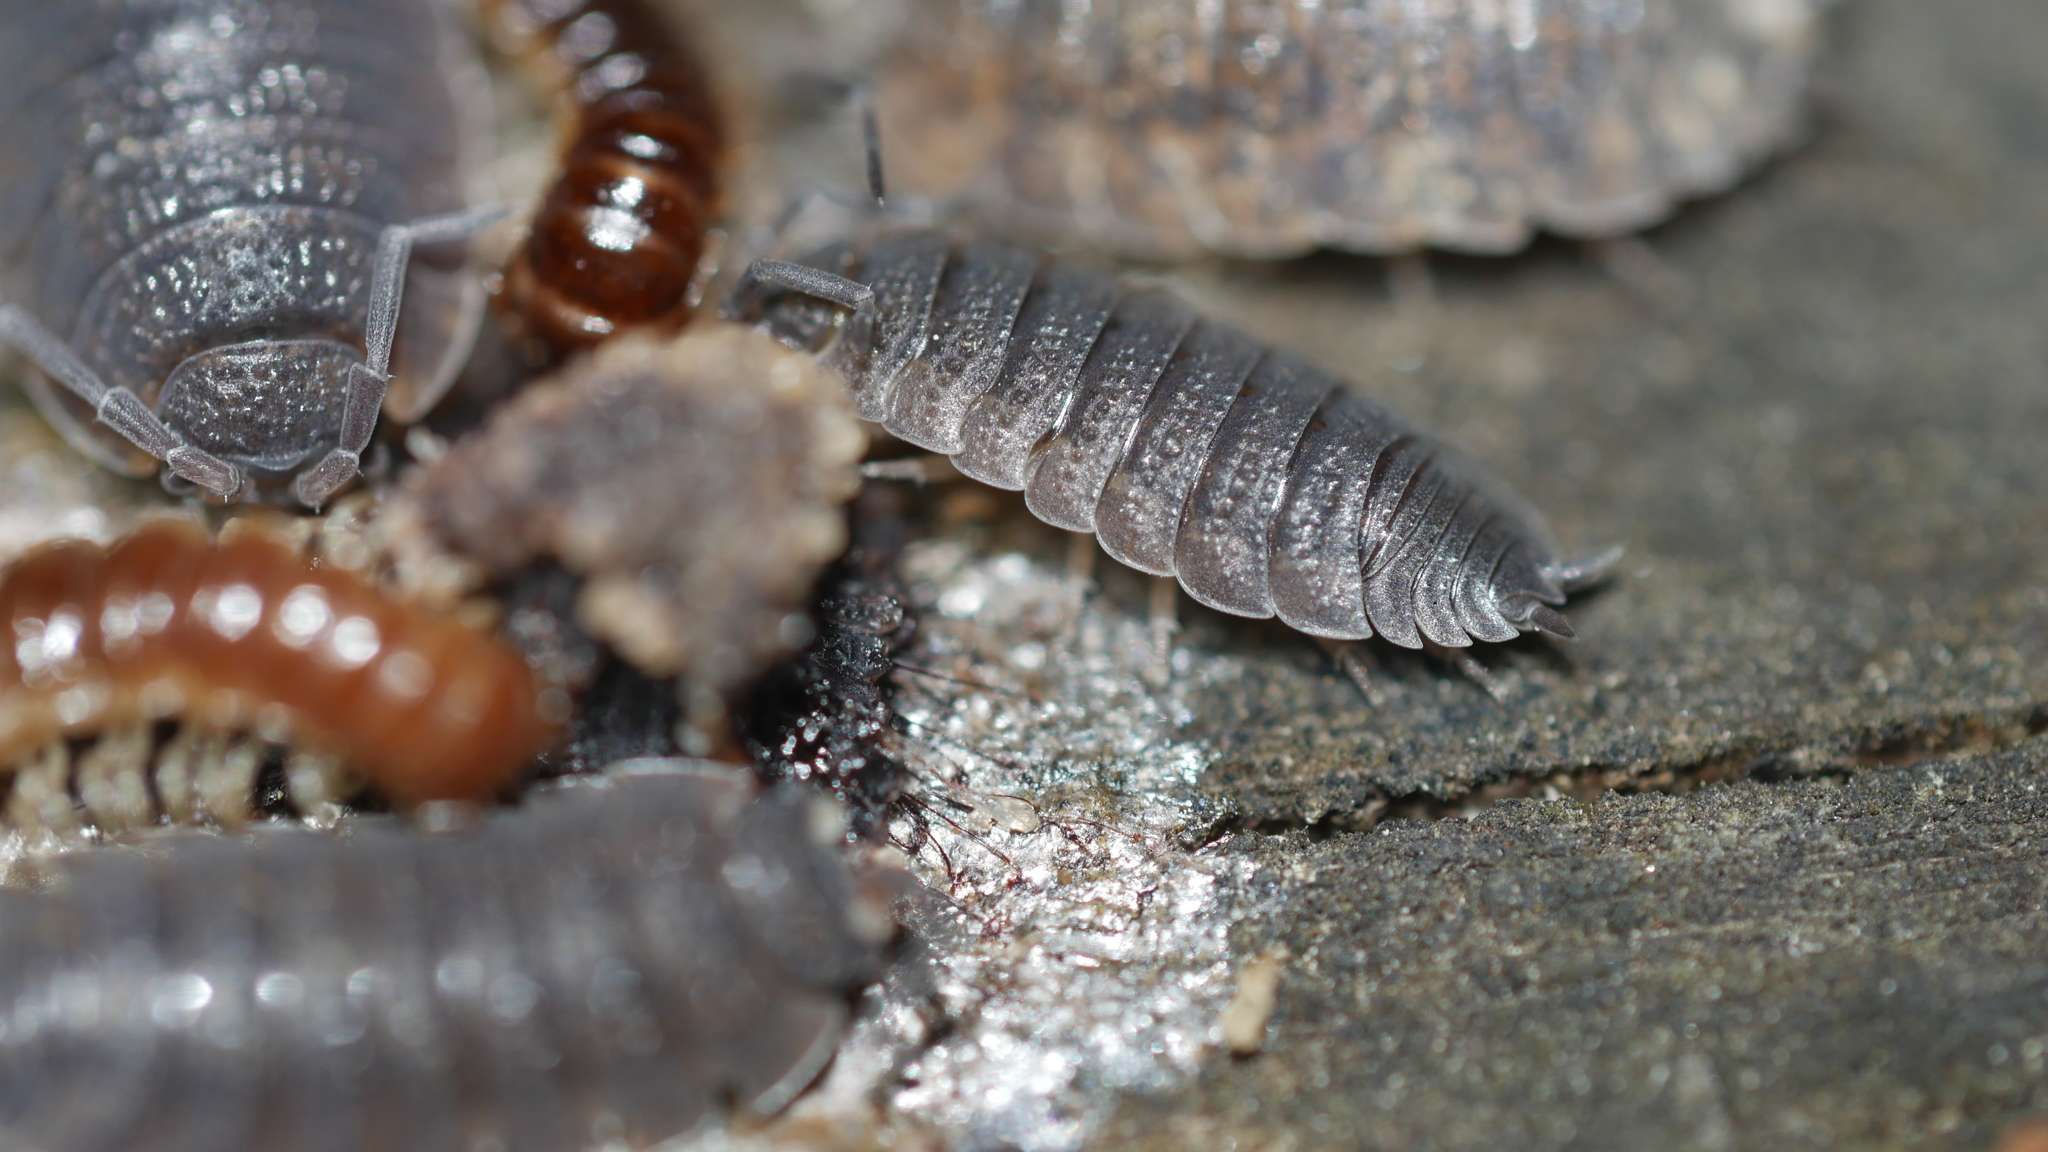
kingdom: Animalia
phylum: Arthropoda
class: Malacostraca
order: Isopoda
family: Porcellionidae
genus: Porcellio
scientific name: Porcellio scaber
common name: Common rough woodlouse
